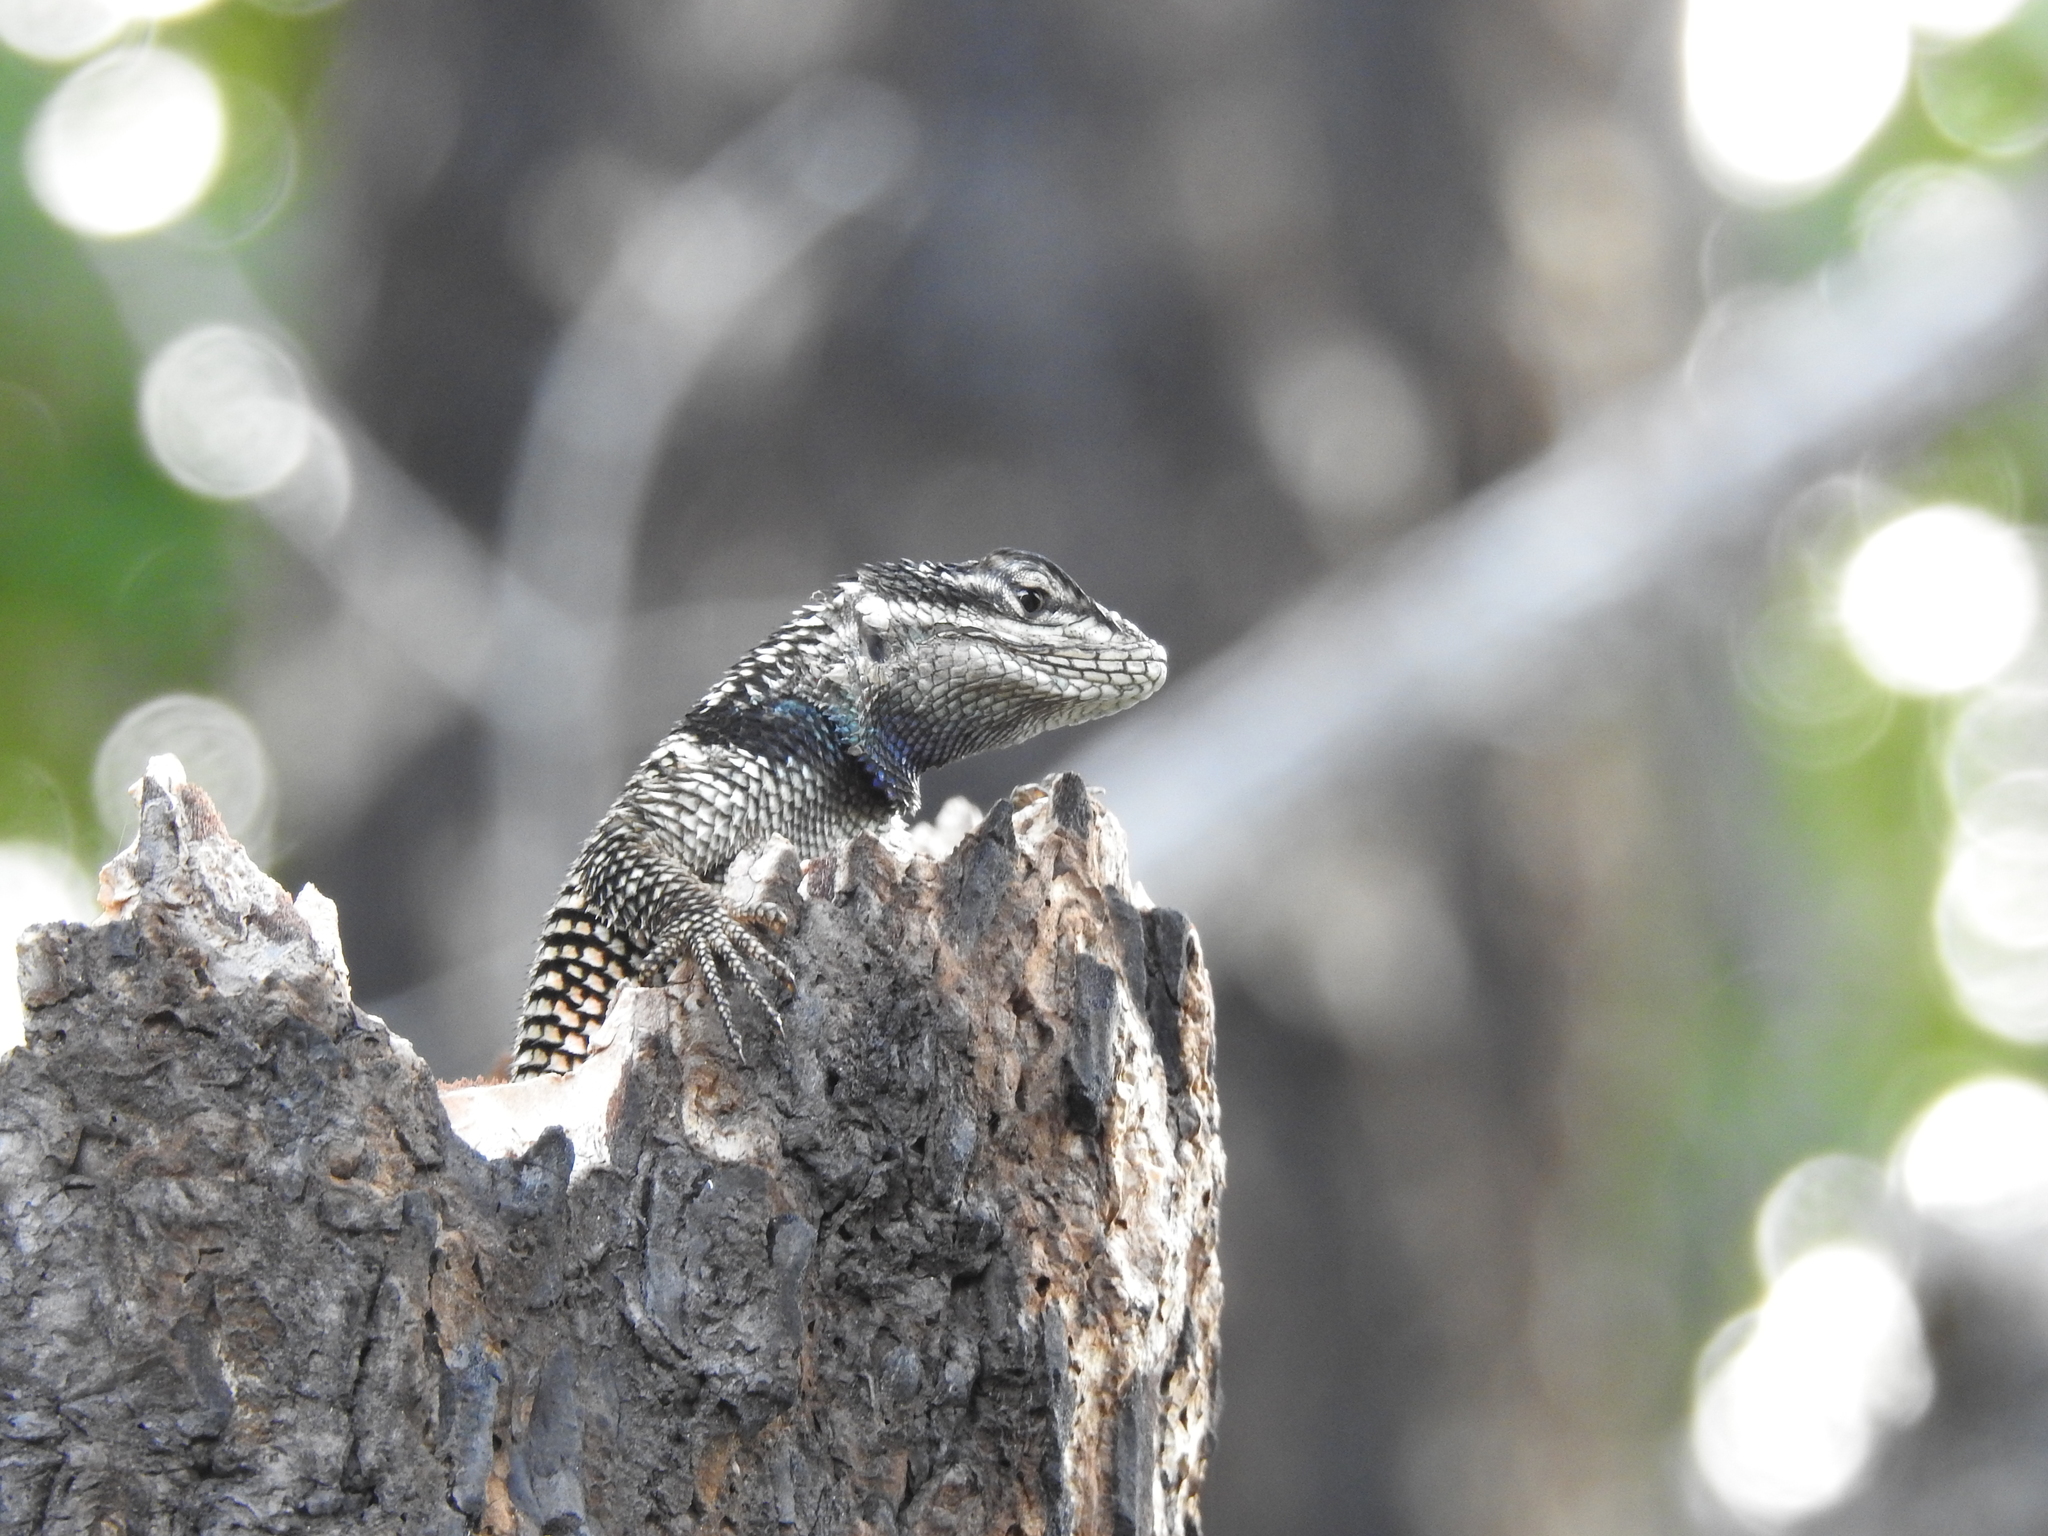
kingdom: Animalia
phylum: Chordata
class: Squamata
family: Phrynosomatidae
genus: Sceloporus
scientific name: Sceloporus jarrovii
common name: Yarrow's spiny lizard
